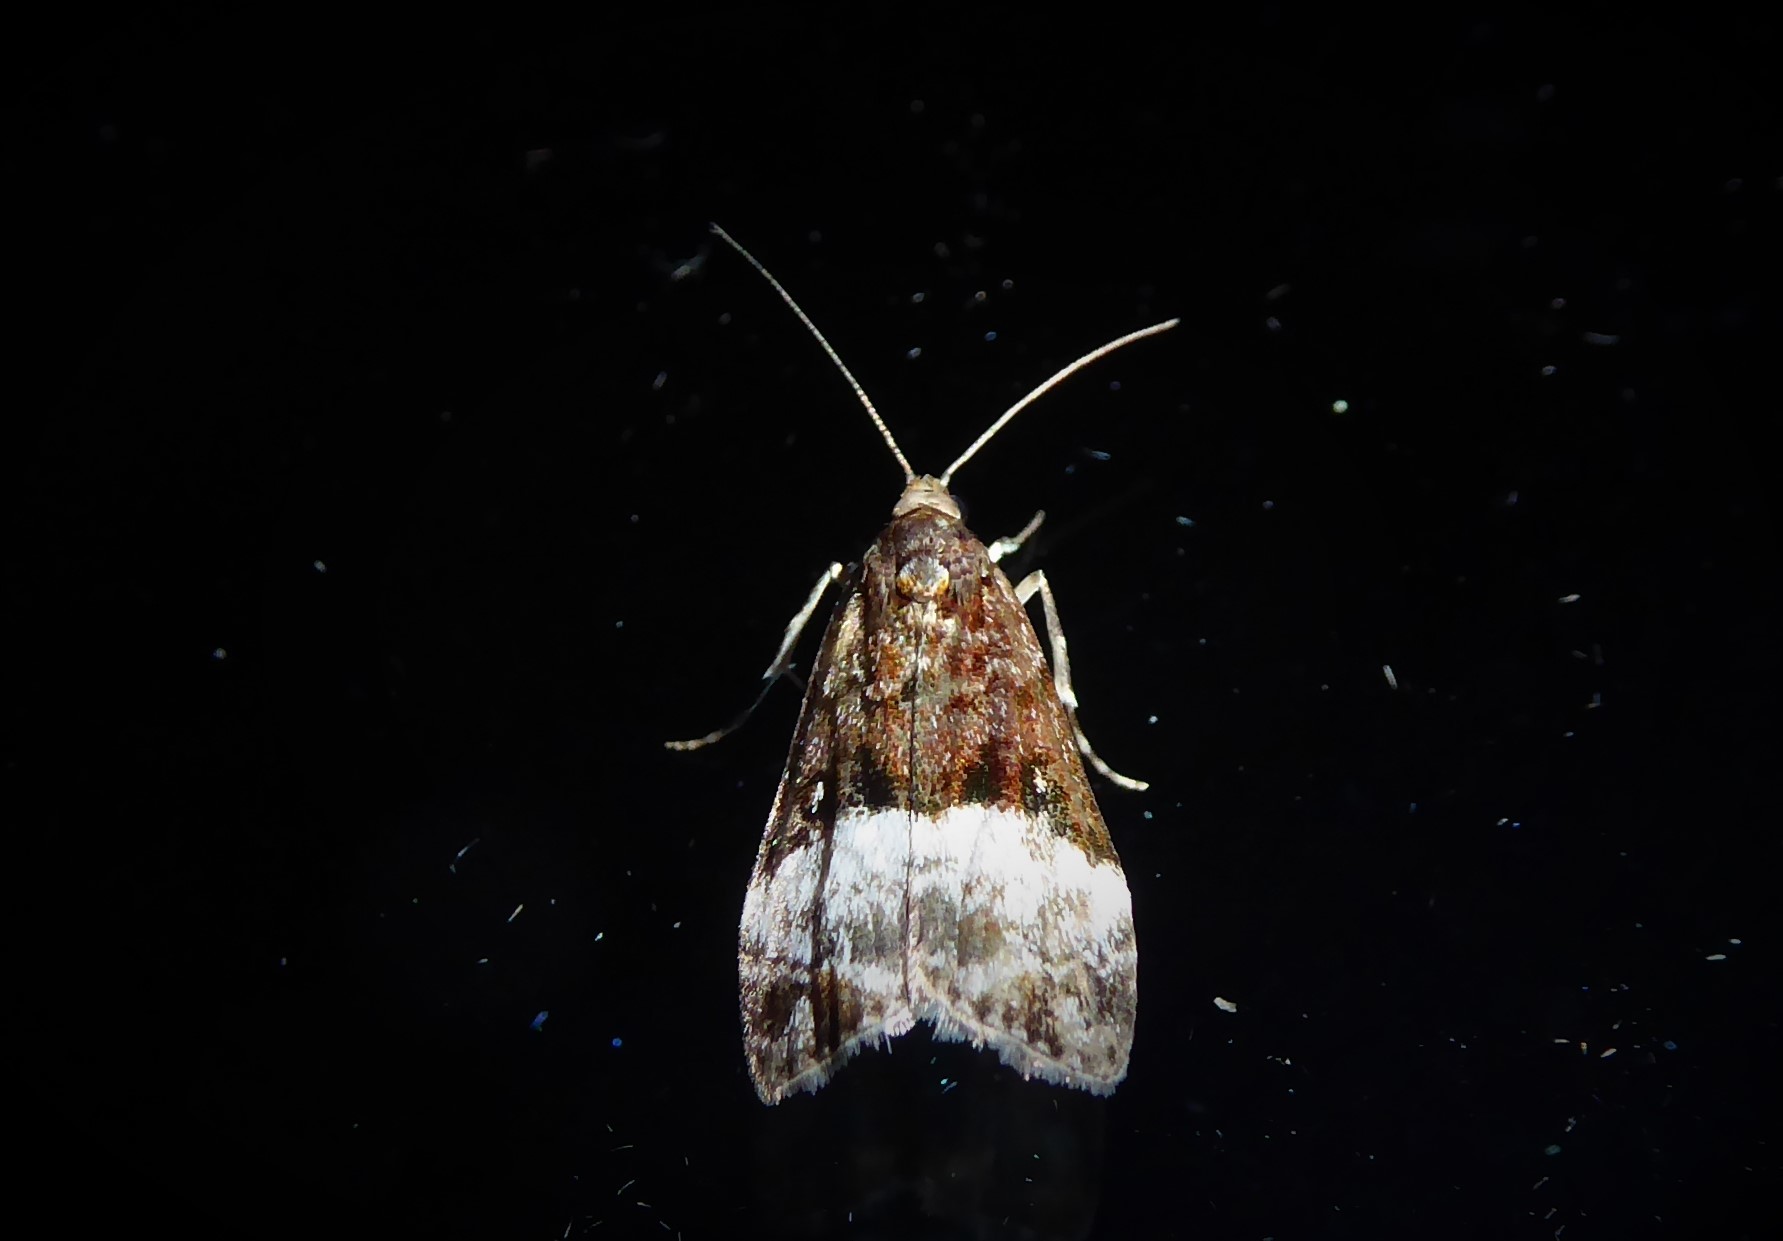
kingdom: Animalia
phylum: Arthropoda
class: Insecta
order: Lepidoptera
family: Crambidae
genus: Scoparia
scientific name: Scoparia minusculalis
